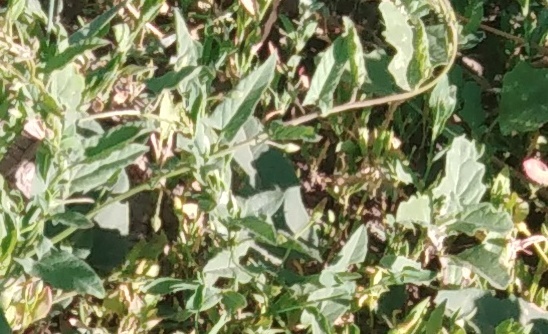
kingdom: Plantae
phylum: Tracheophyta
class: Magnoliopsida
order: Solanales
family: Convolvulaceae
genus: Convolvulus
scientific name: Convolvulus arvensis
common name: Field bindweed
